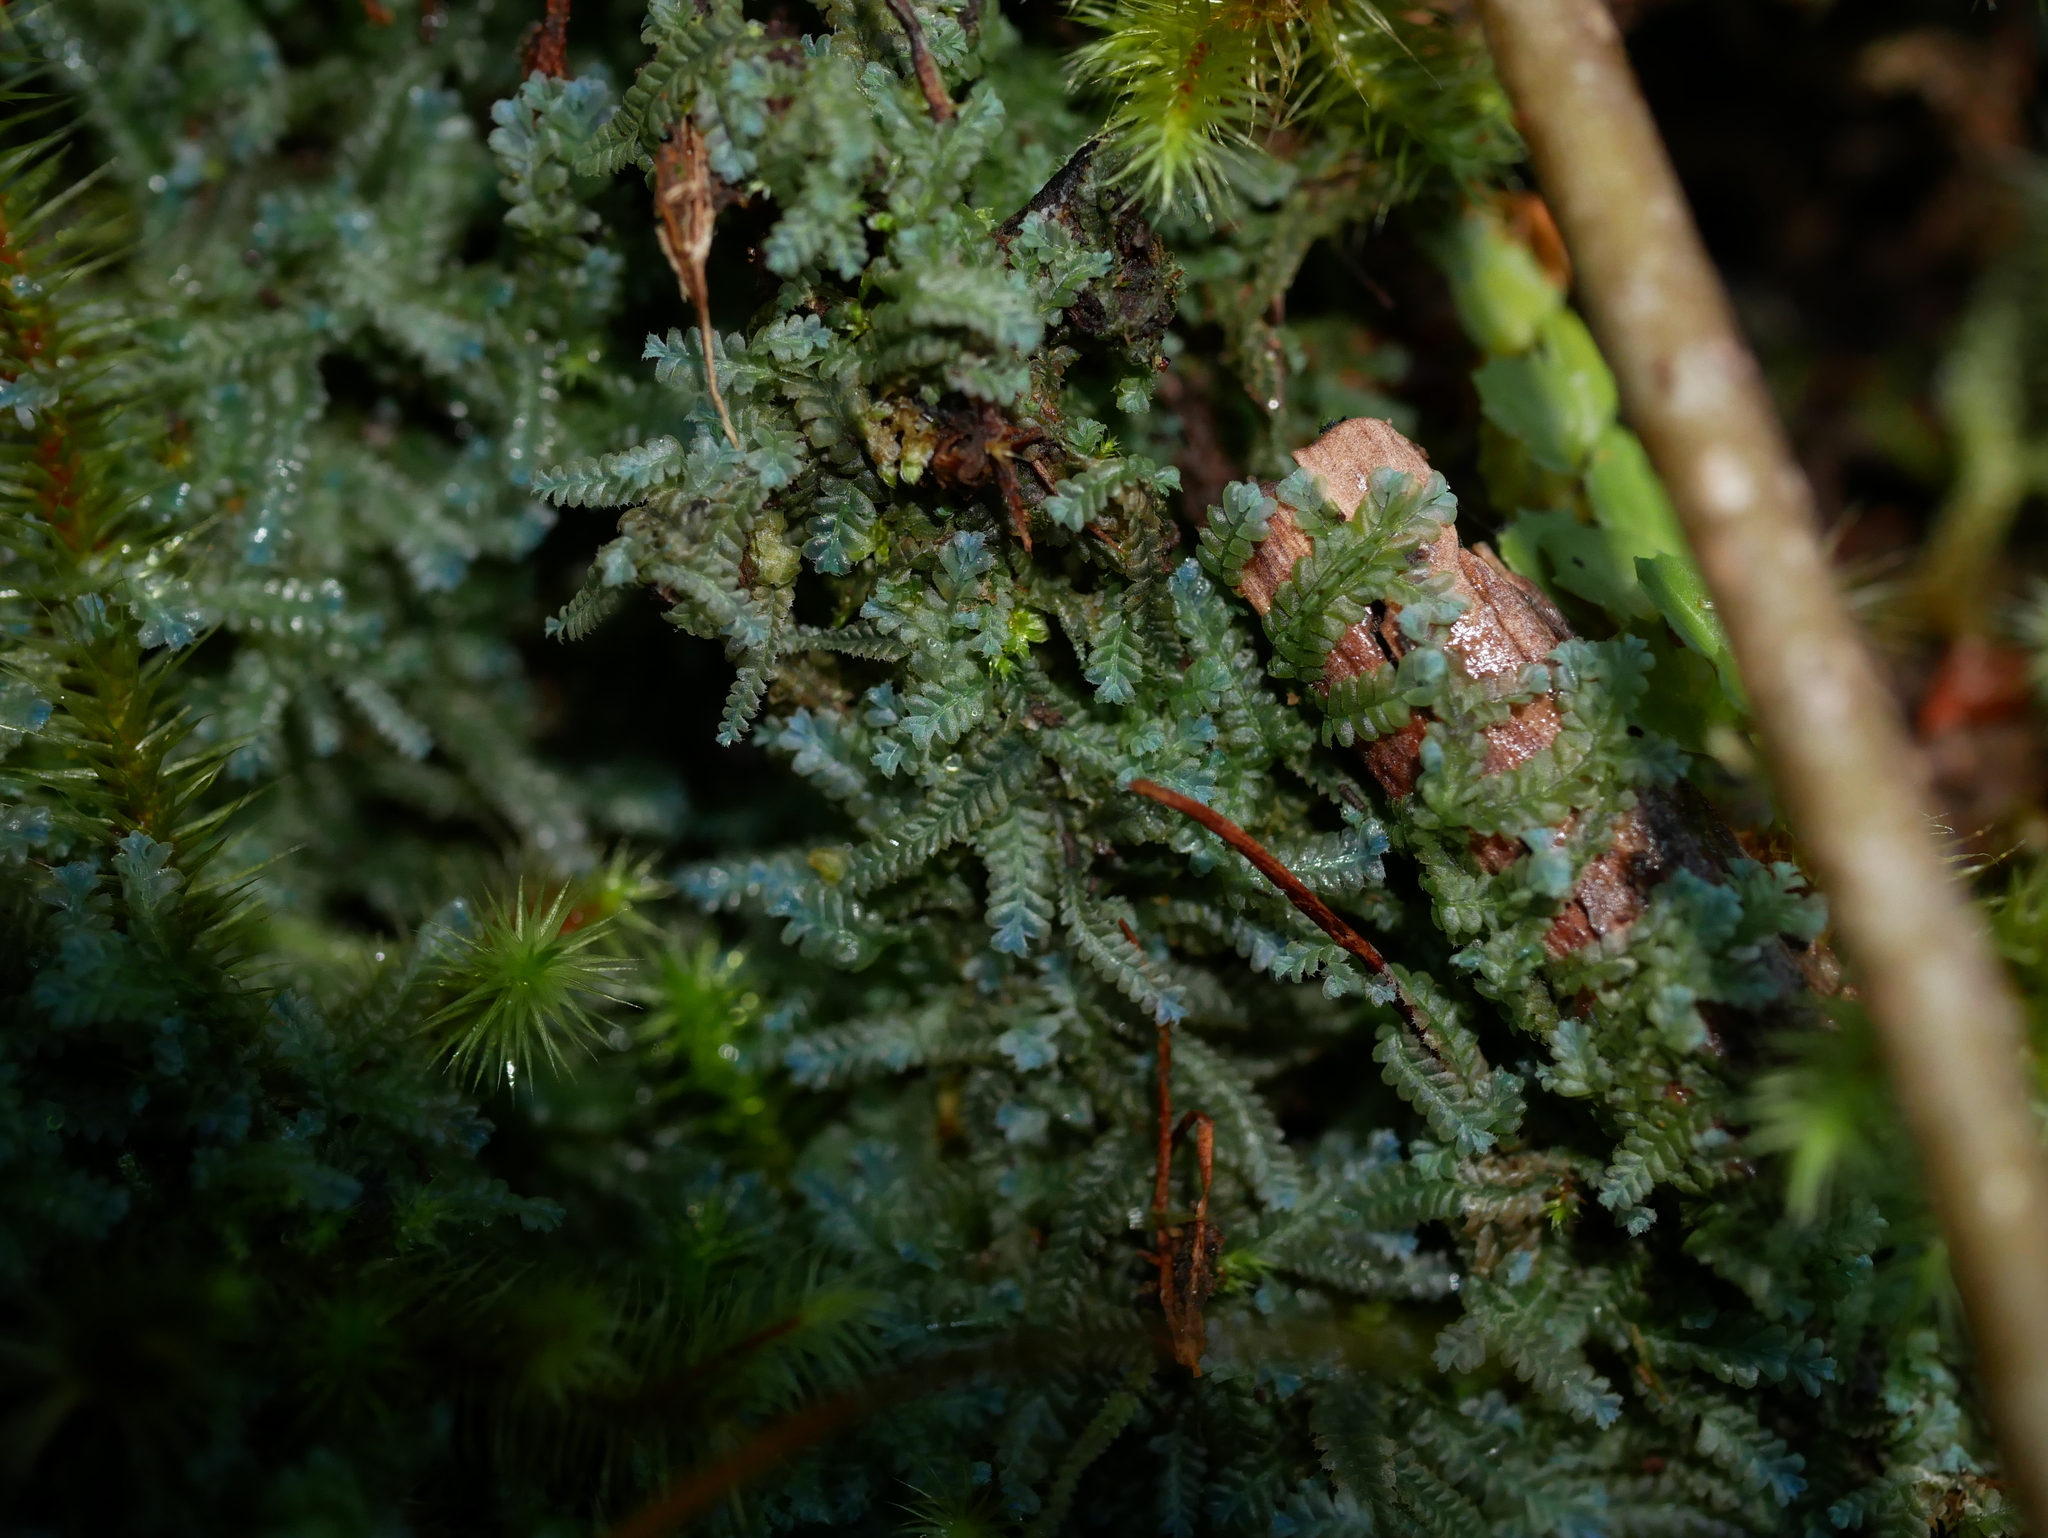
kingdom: Plantae
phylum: Marchantiophyta
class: Jungermanniopsida
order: Jungermanniales
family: Lophocoleaceae
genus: Heteroscyphus
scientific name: Heteroscyphus echinellus
